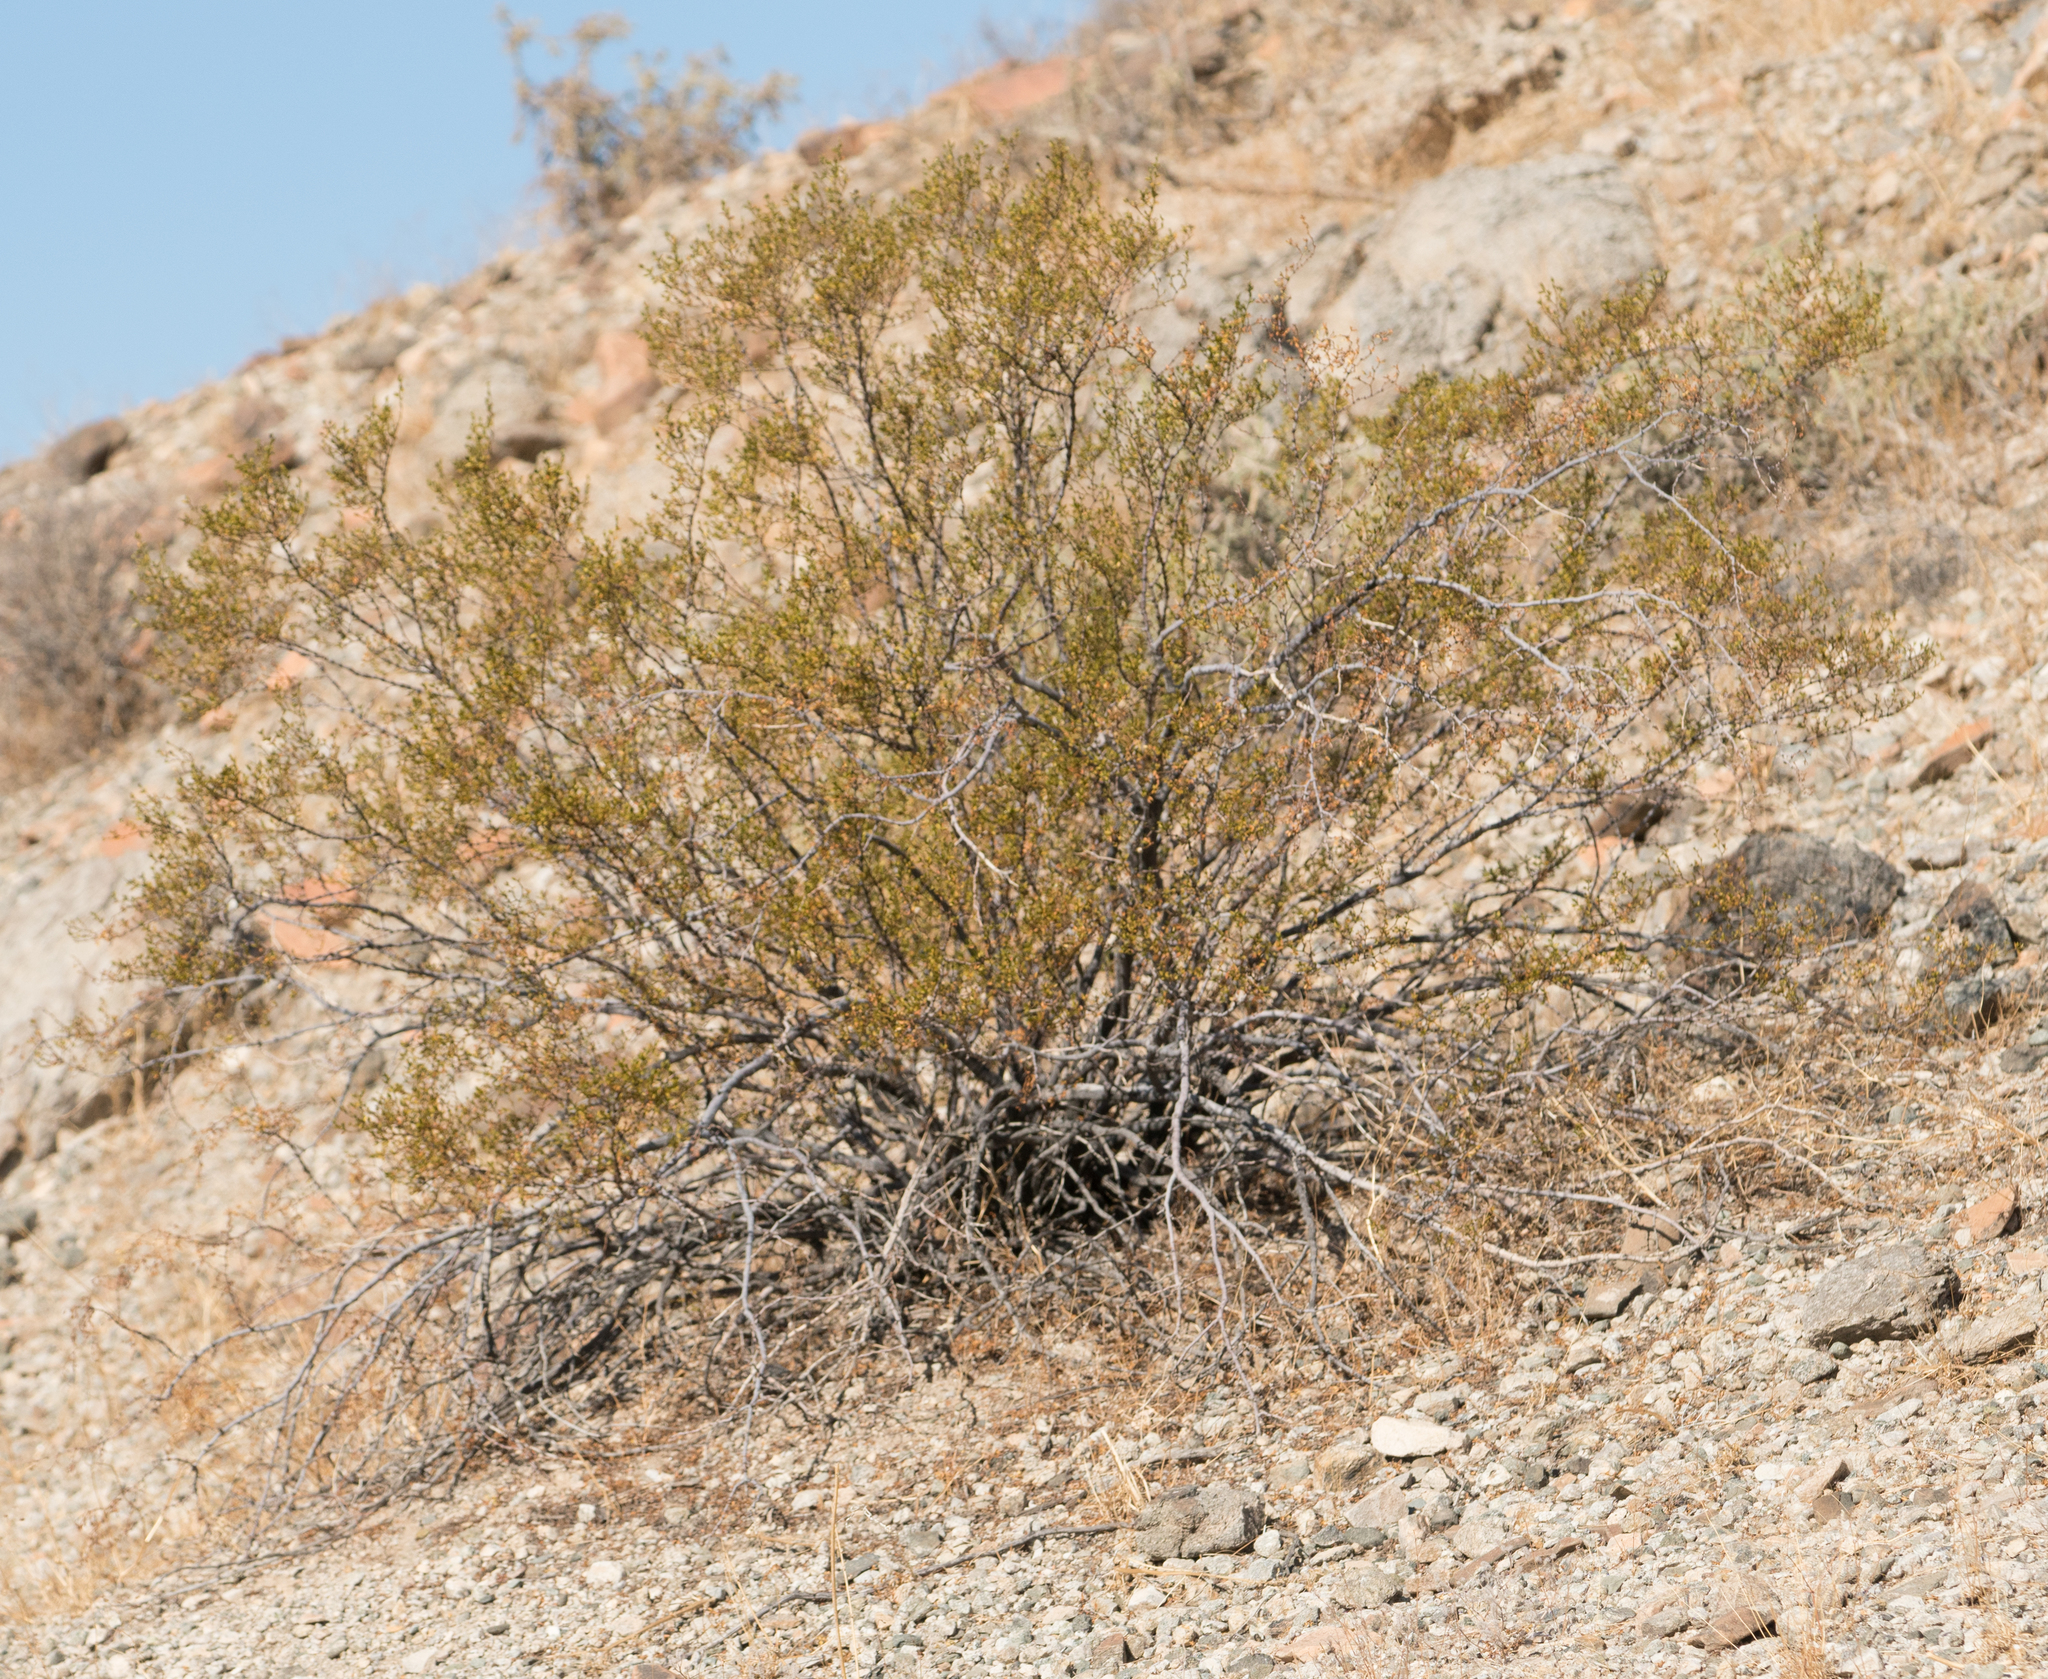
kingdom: Plantae
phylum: Tracheophyta
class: Magnoliopsida
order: Zygophyllales
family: Zygophyllaceae
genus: Larrea
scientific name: Larrea tridentata
